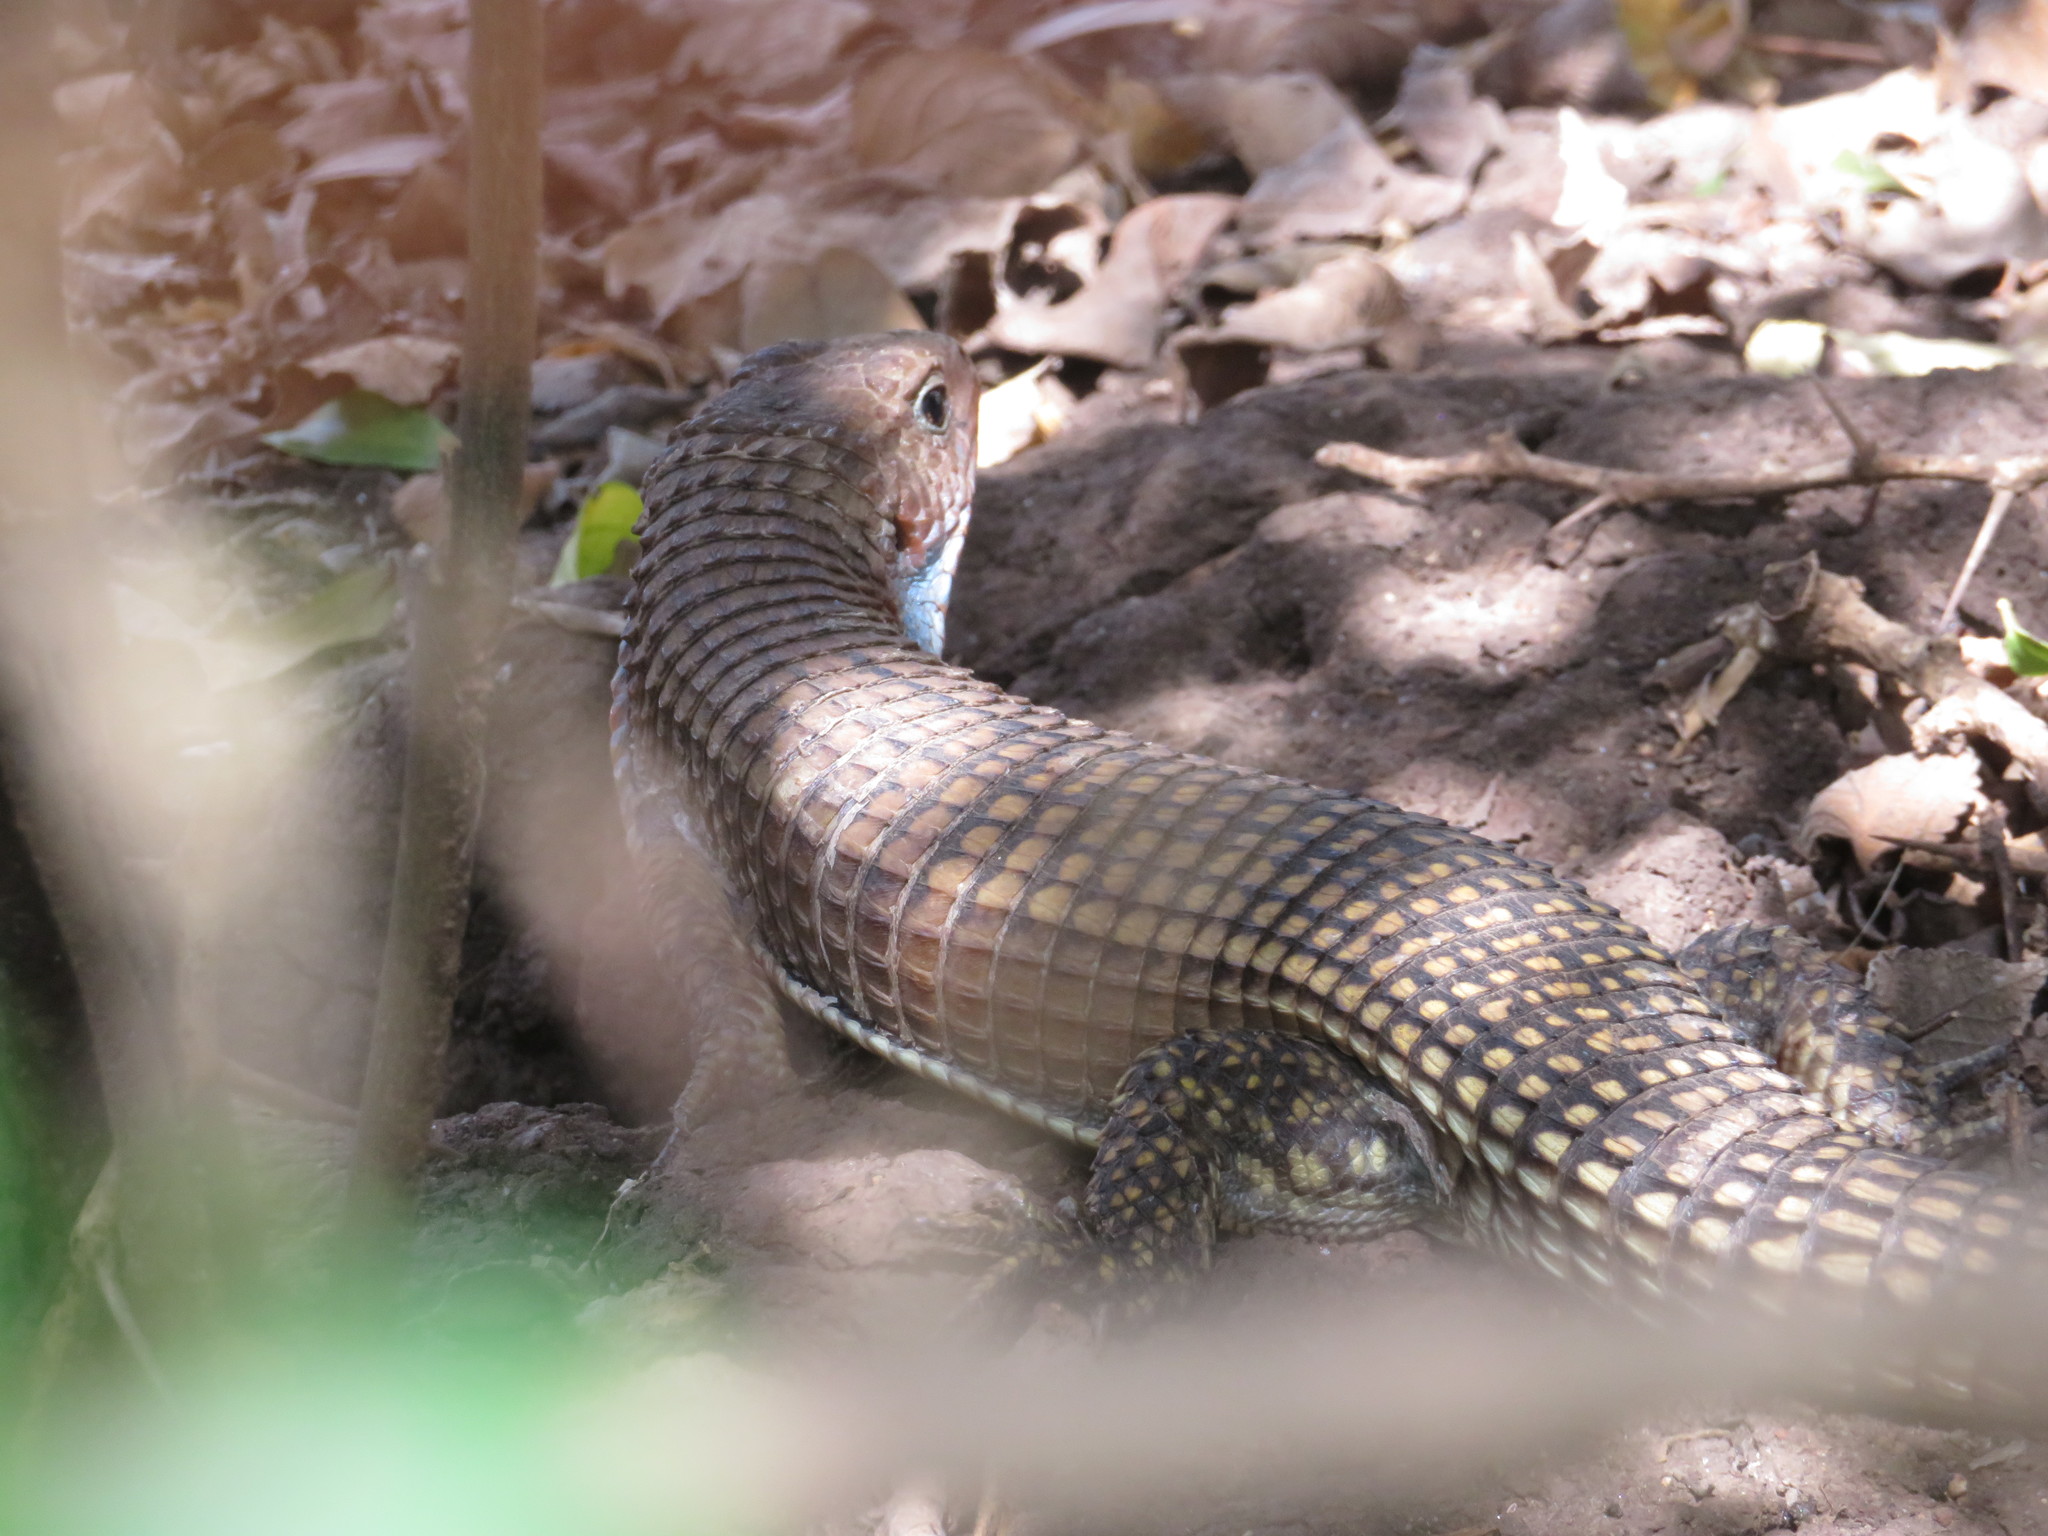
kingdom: Animalia
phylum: Chordata
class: Squamata
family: Gerrhosauridae
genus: Broadleysaurus
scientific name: Broadleysaurus major
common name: Rough-scaled plated lizard
